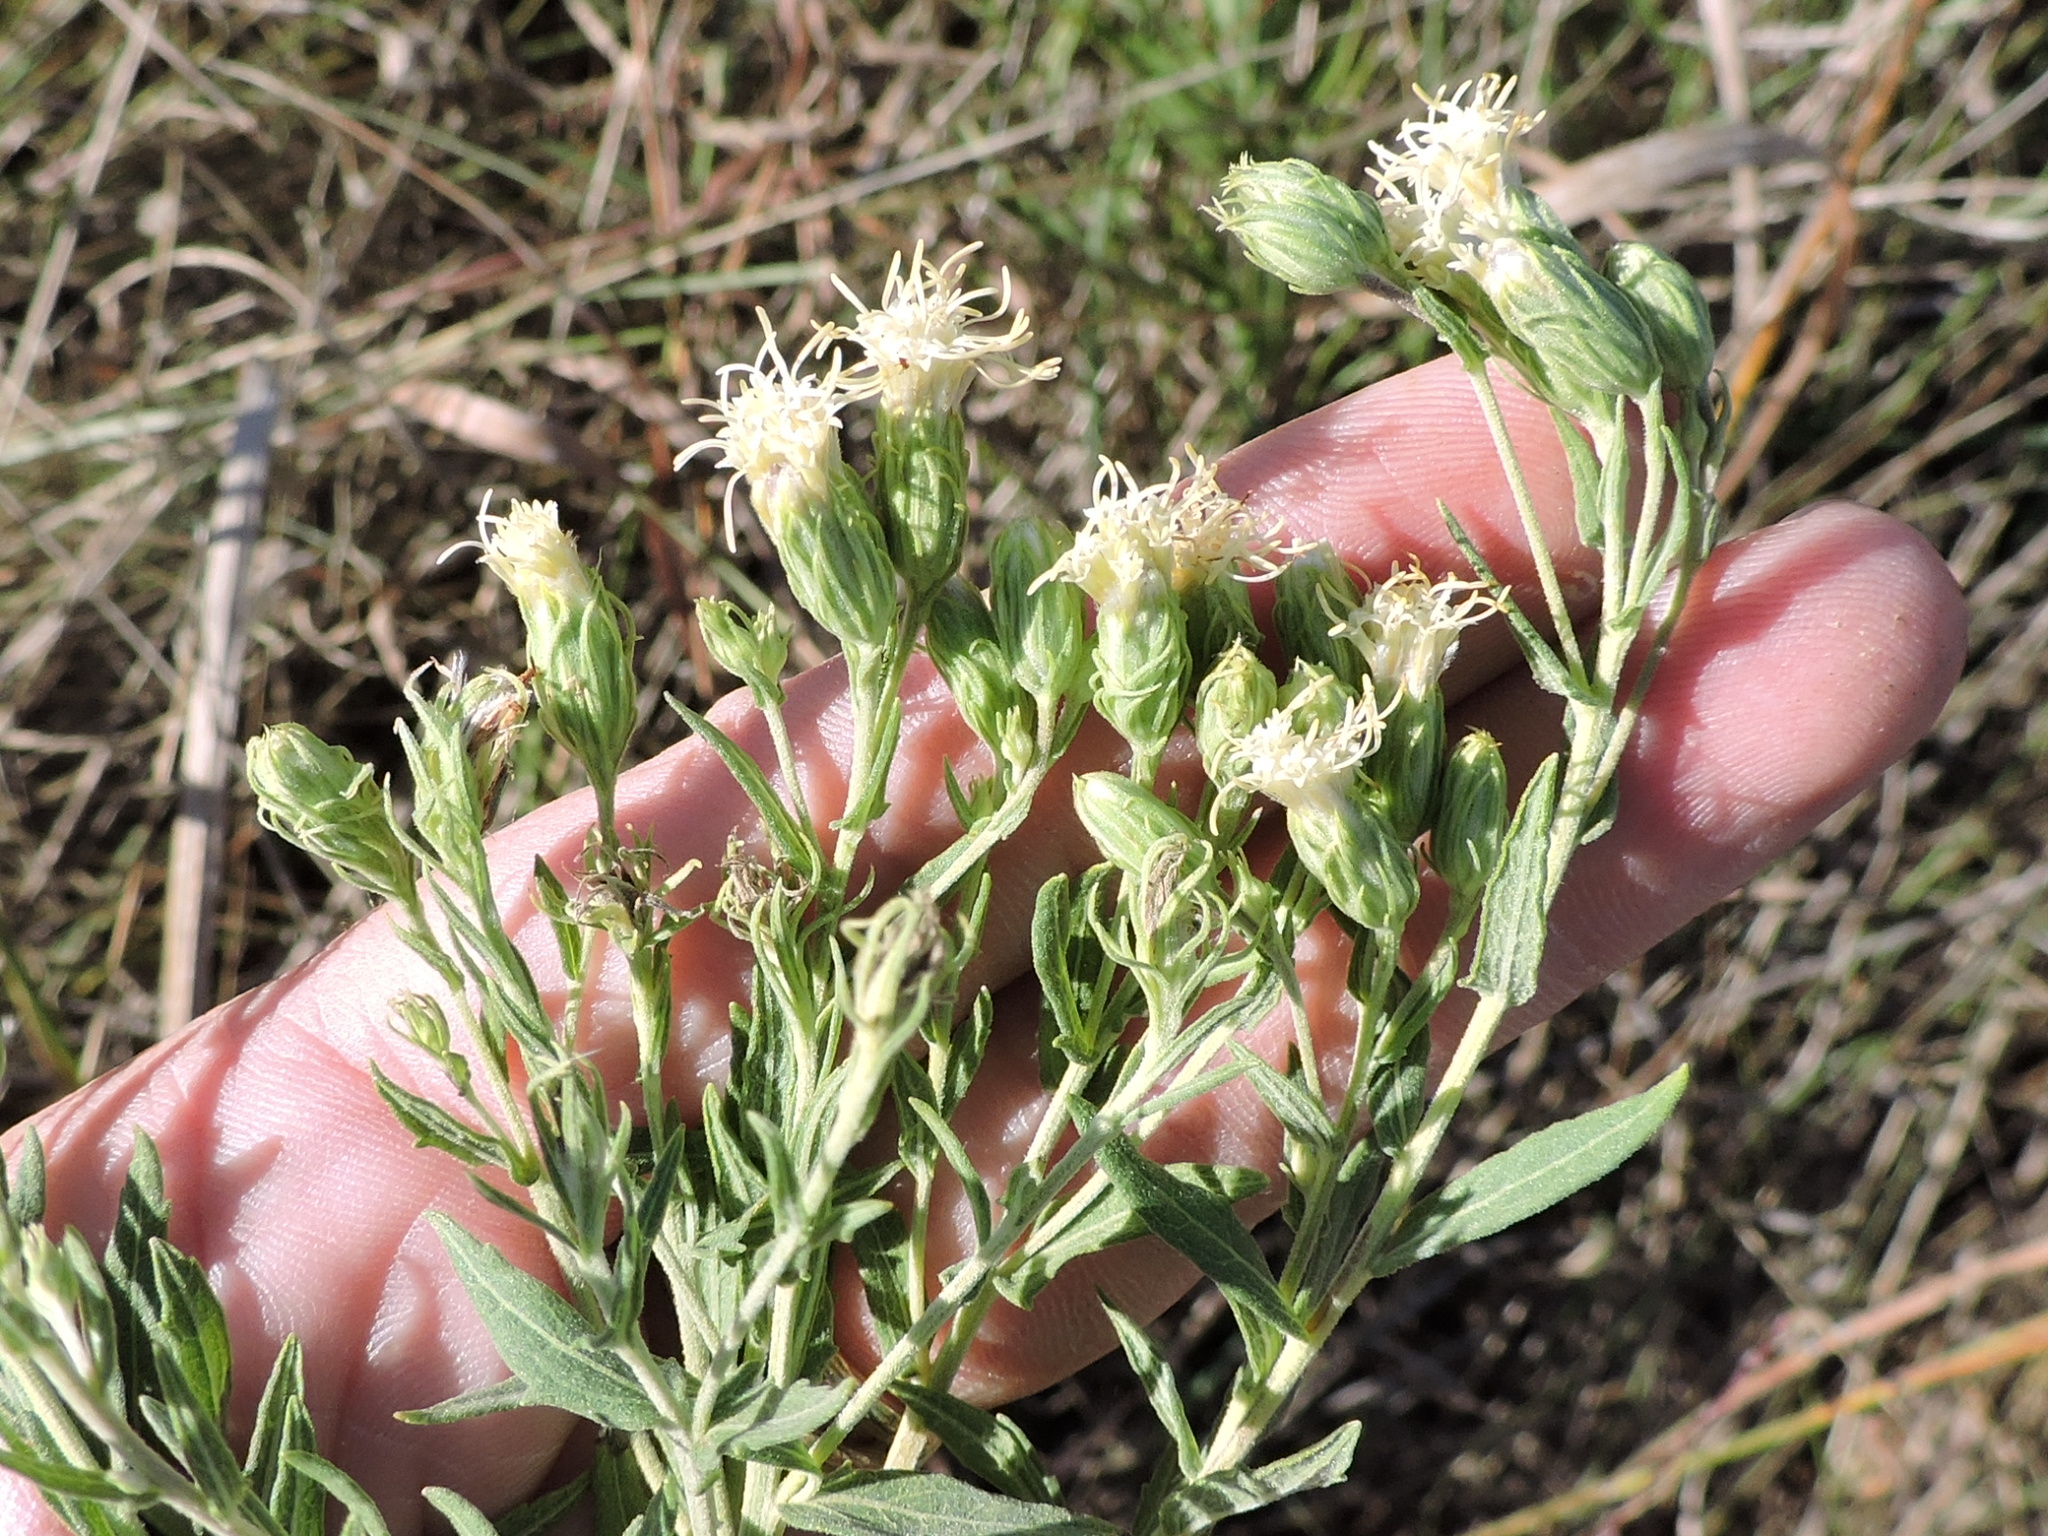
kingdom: Plantae
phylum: Tracheophyta
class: Magnoliopsida
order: Asterales
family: Asteraceae
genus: Brickellia
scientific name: Brickellia eupatorioides
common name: False boneset
